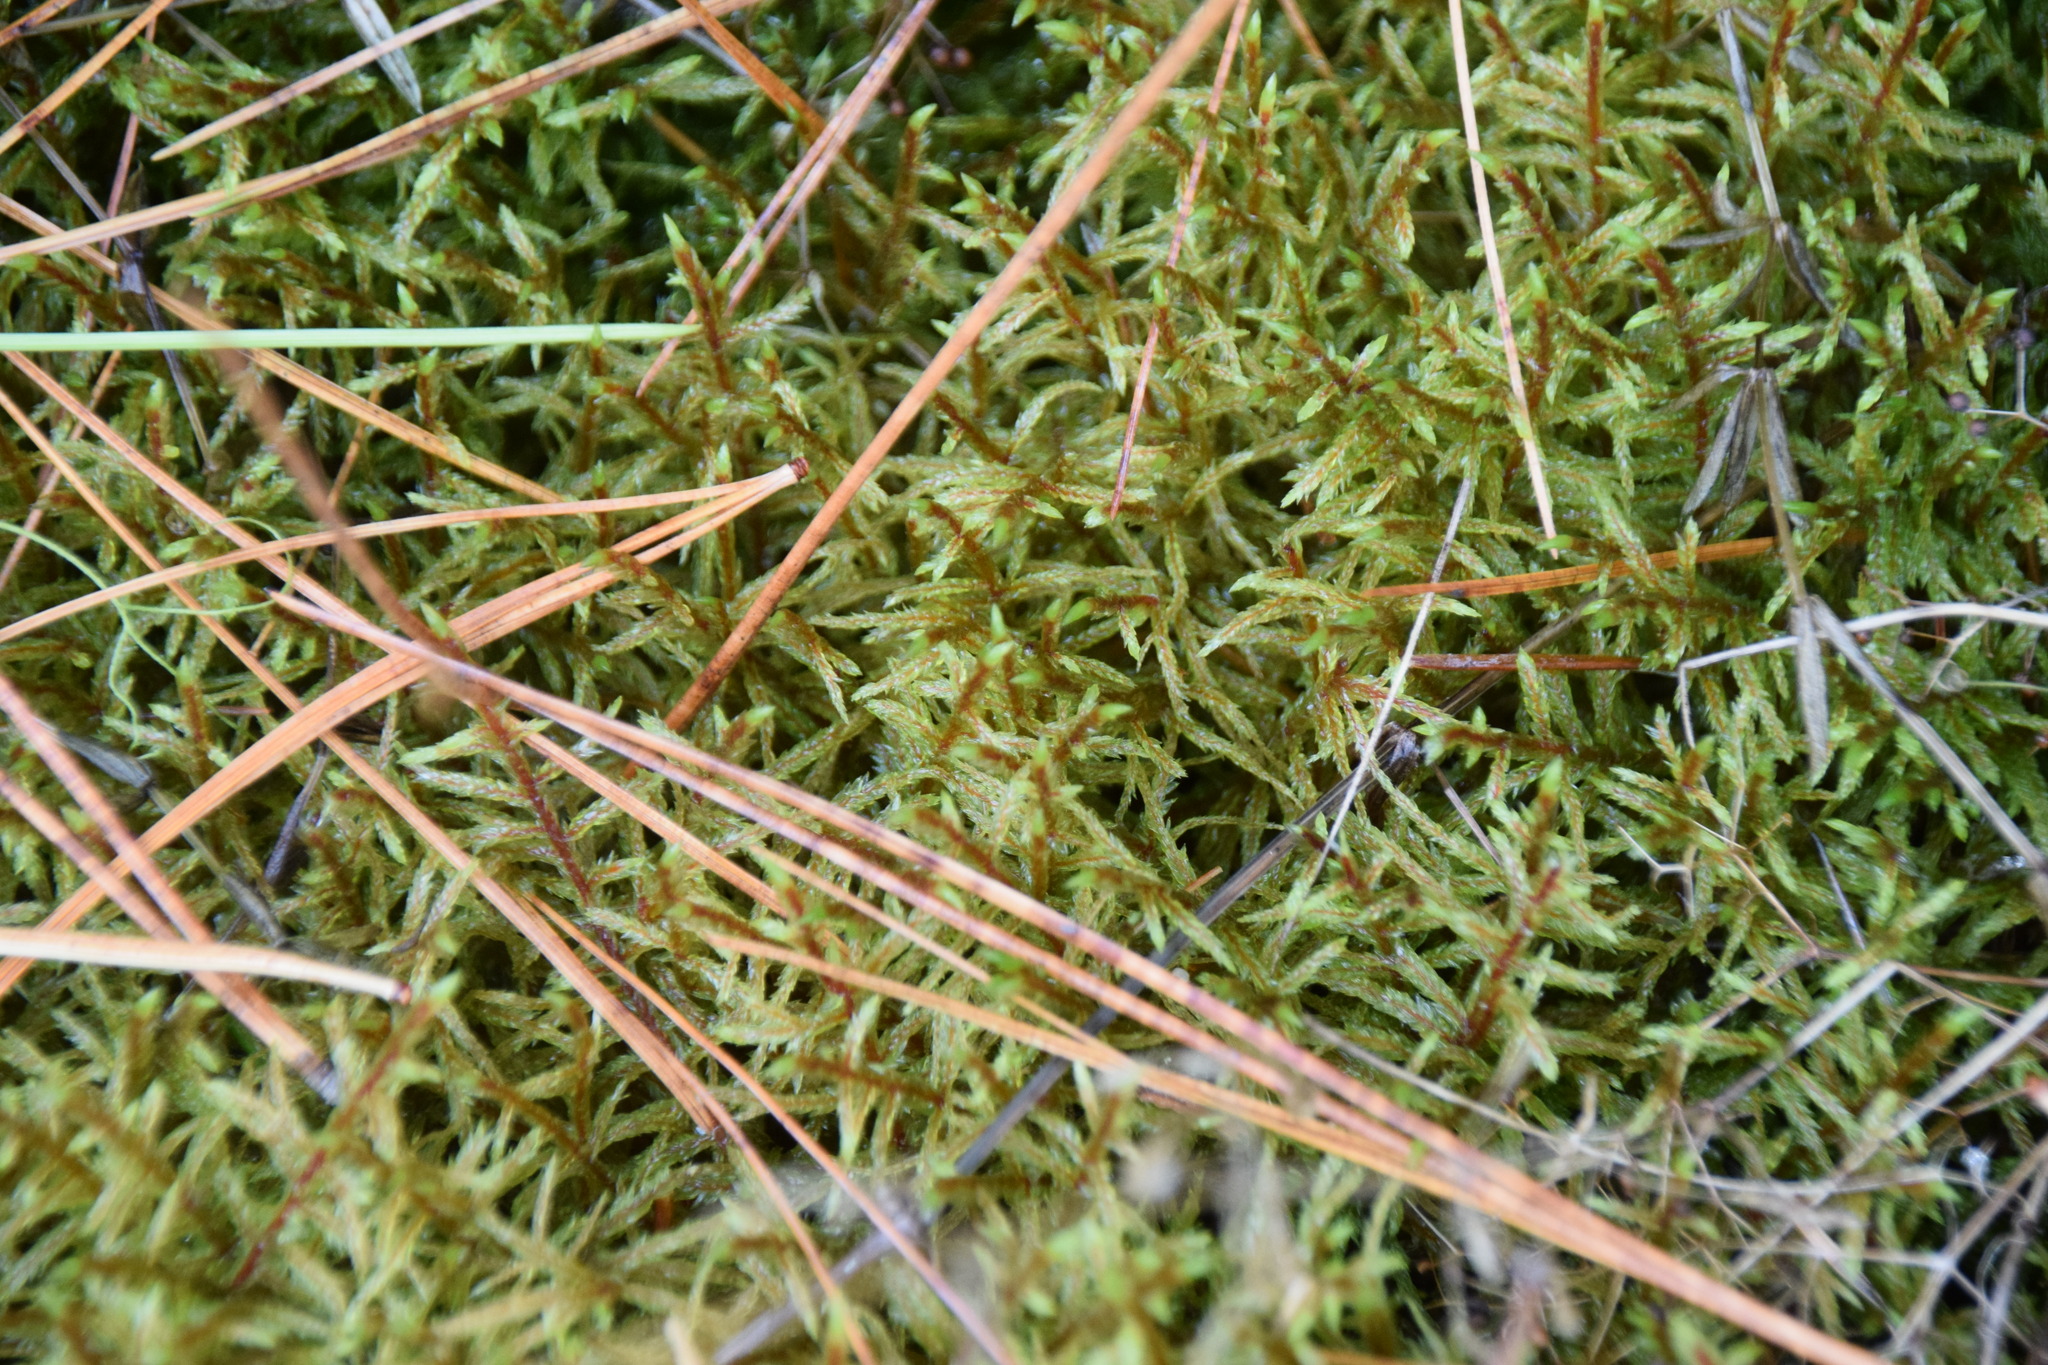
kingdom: Plantae
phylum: Bryophyta
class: Bryopsida
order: Hypnales
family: Hylocomiaceae
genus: Pleurozium
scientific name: Pleurozium schreberi
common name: Red-stemmed feather moss
